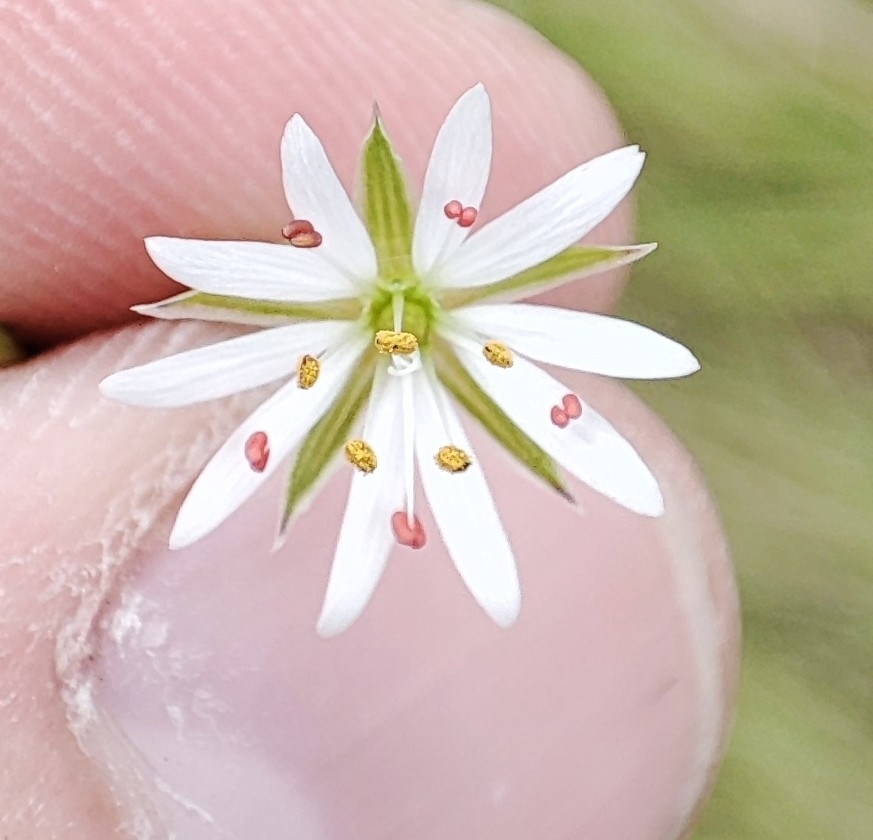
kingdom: Plantae
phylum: Tracheophyta
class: Magnoliopsida
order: Caryophyllales
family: Caryophyllaceae
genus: Stellaria
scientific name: Stellaria graminea
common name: Grass-like starwort
